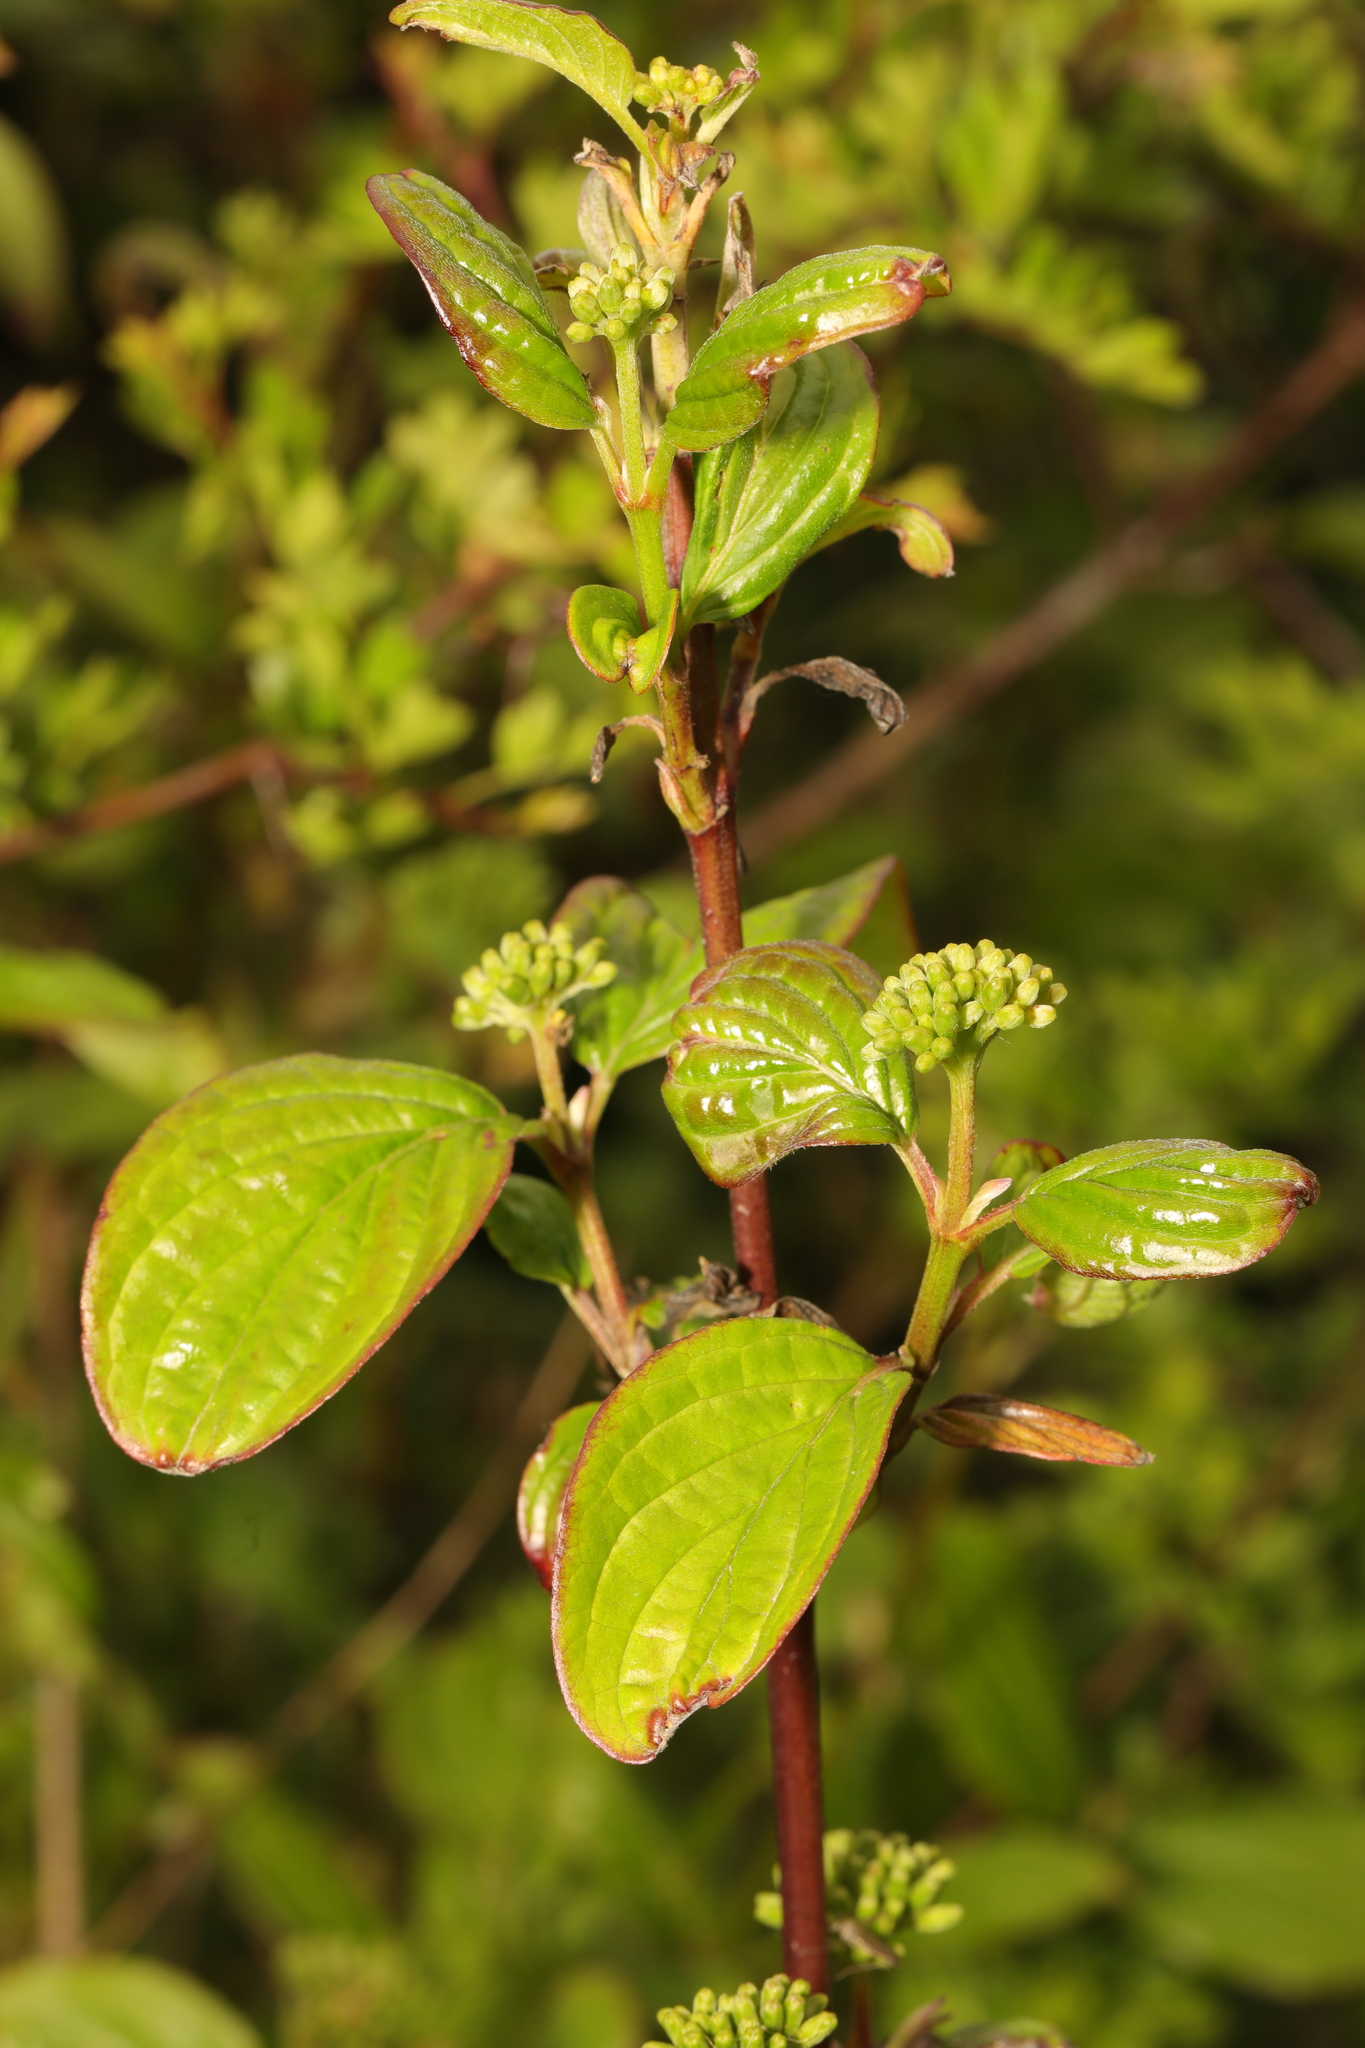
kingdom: Plantae
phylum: Tracheophyta
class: Magnoliopsida
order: Cornales
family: Cornaceae
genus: Cornus
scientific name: Cornus sanguinea
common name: Dogwood
